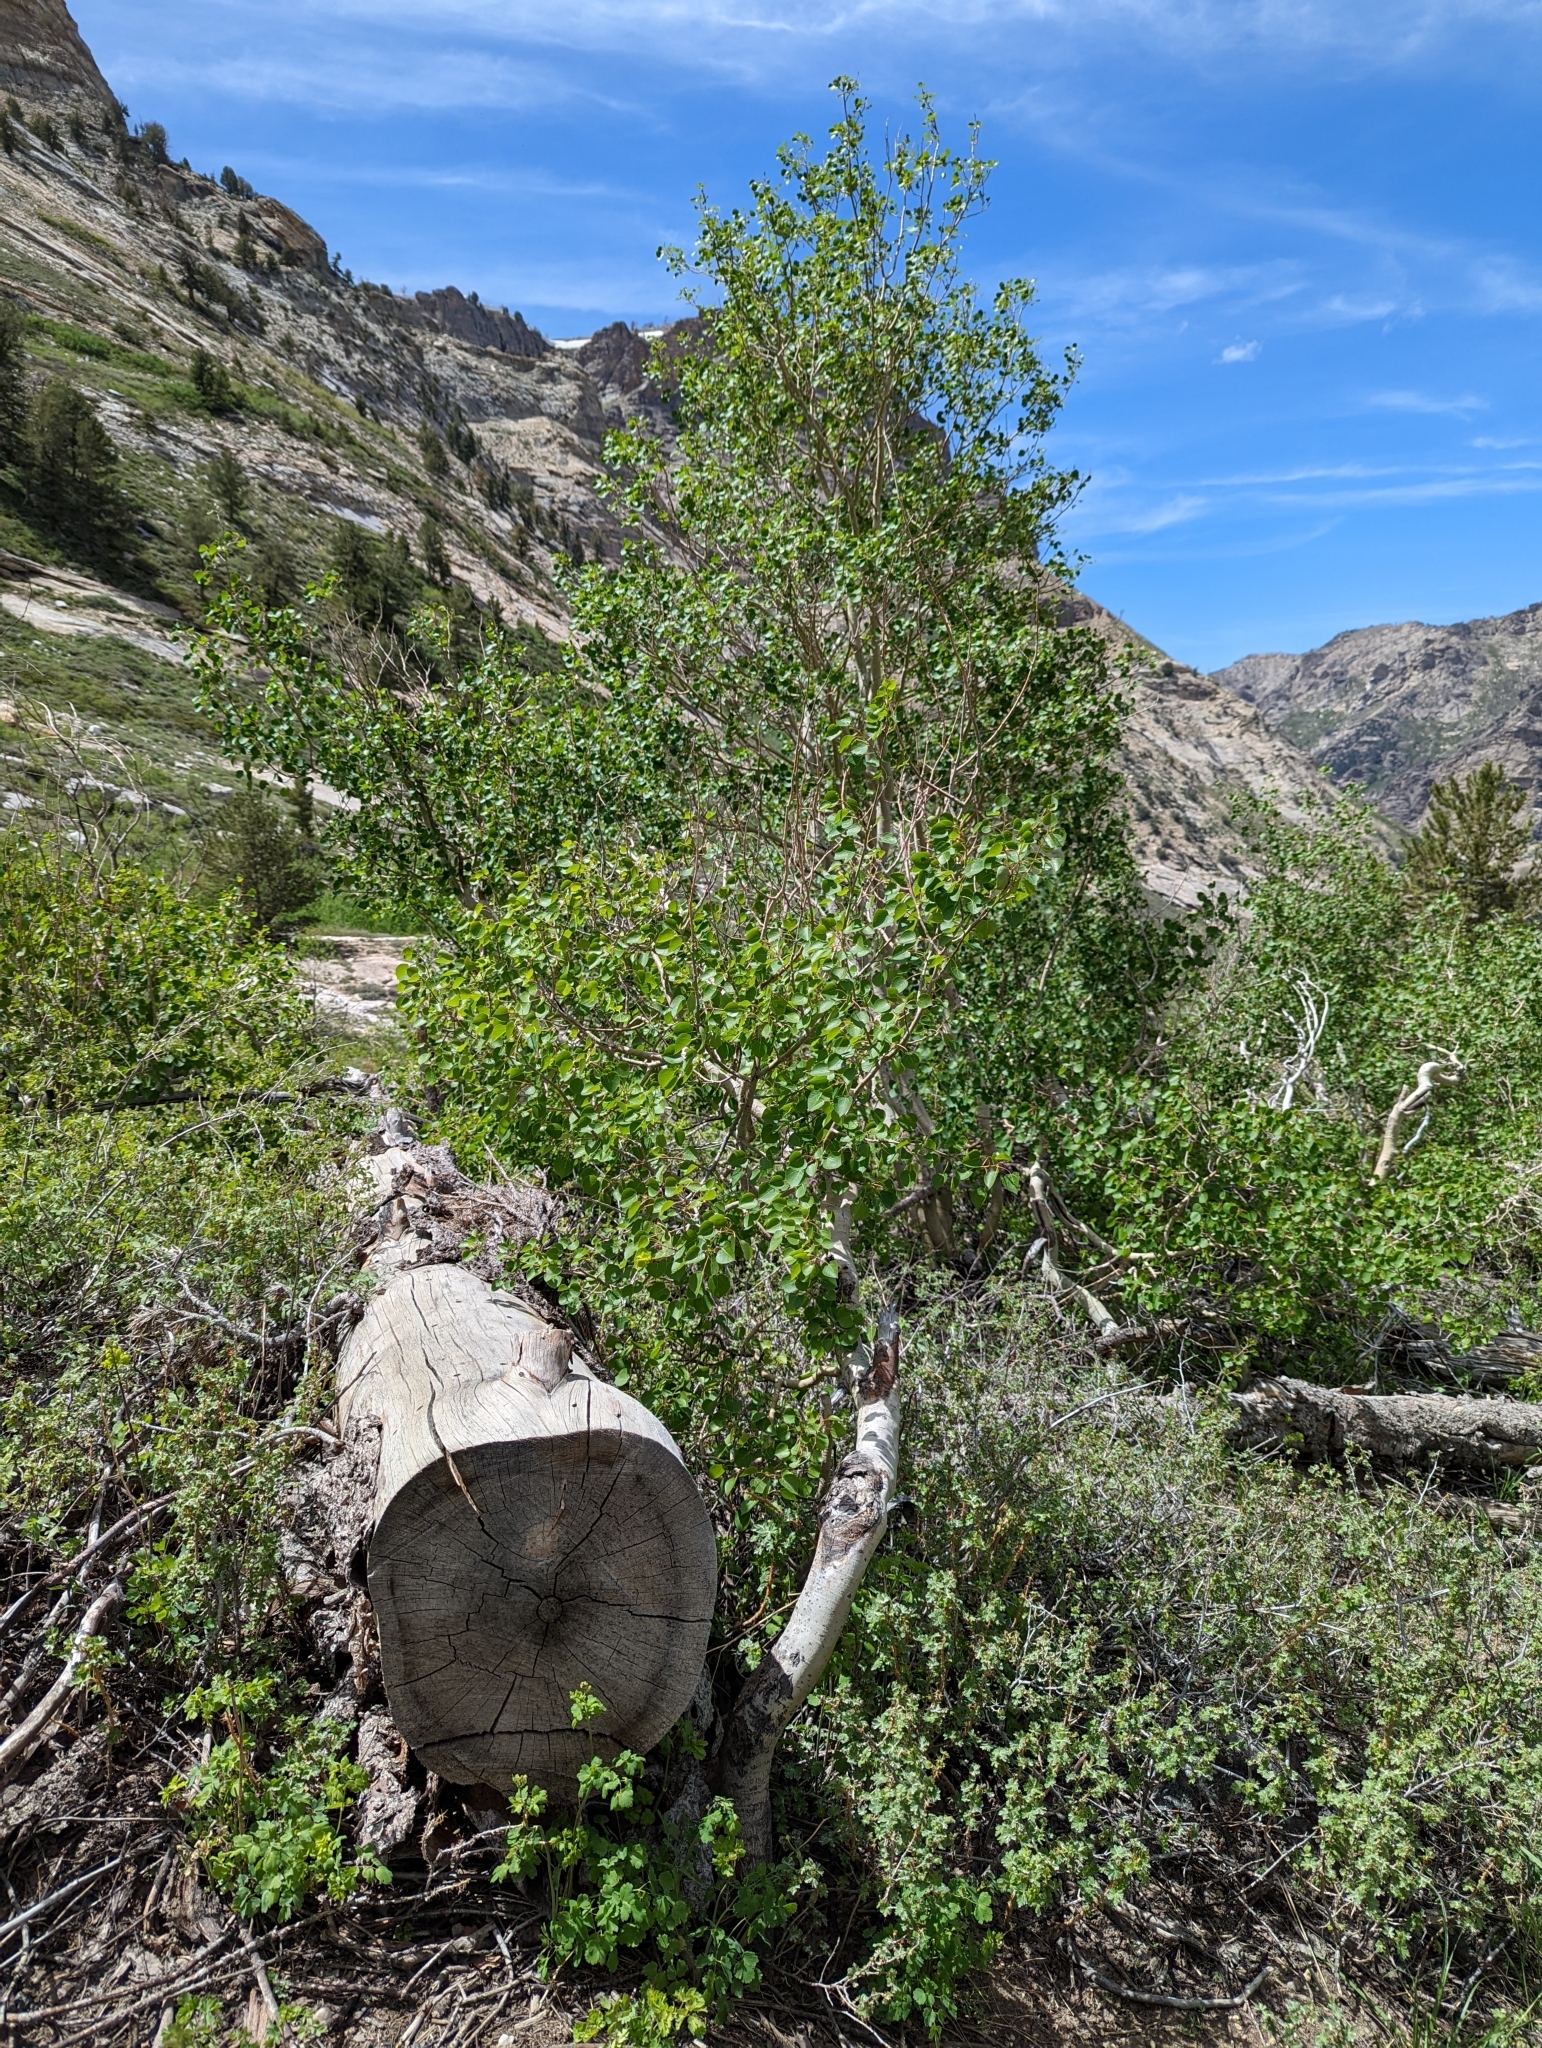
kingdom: Plantae
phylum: Tracheophyta
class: Magnoliopsida
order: Malpighiales
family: Salicaceae
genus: Populus
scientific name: Populus tremuloides
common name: Quaking aspen
